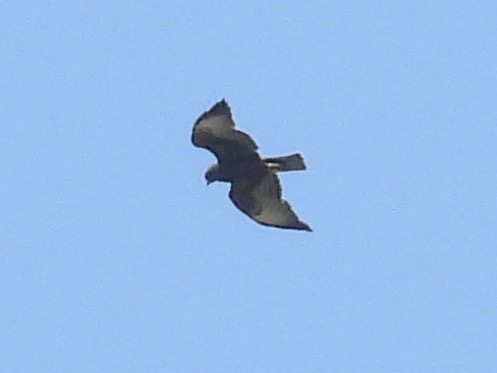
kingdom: Animalia
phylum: Chordata
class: Aves
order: Accipitriformes
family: Accipitridae
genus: Buteo
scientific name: Buteo brachyurus
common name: Short-tailed hawk
